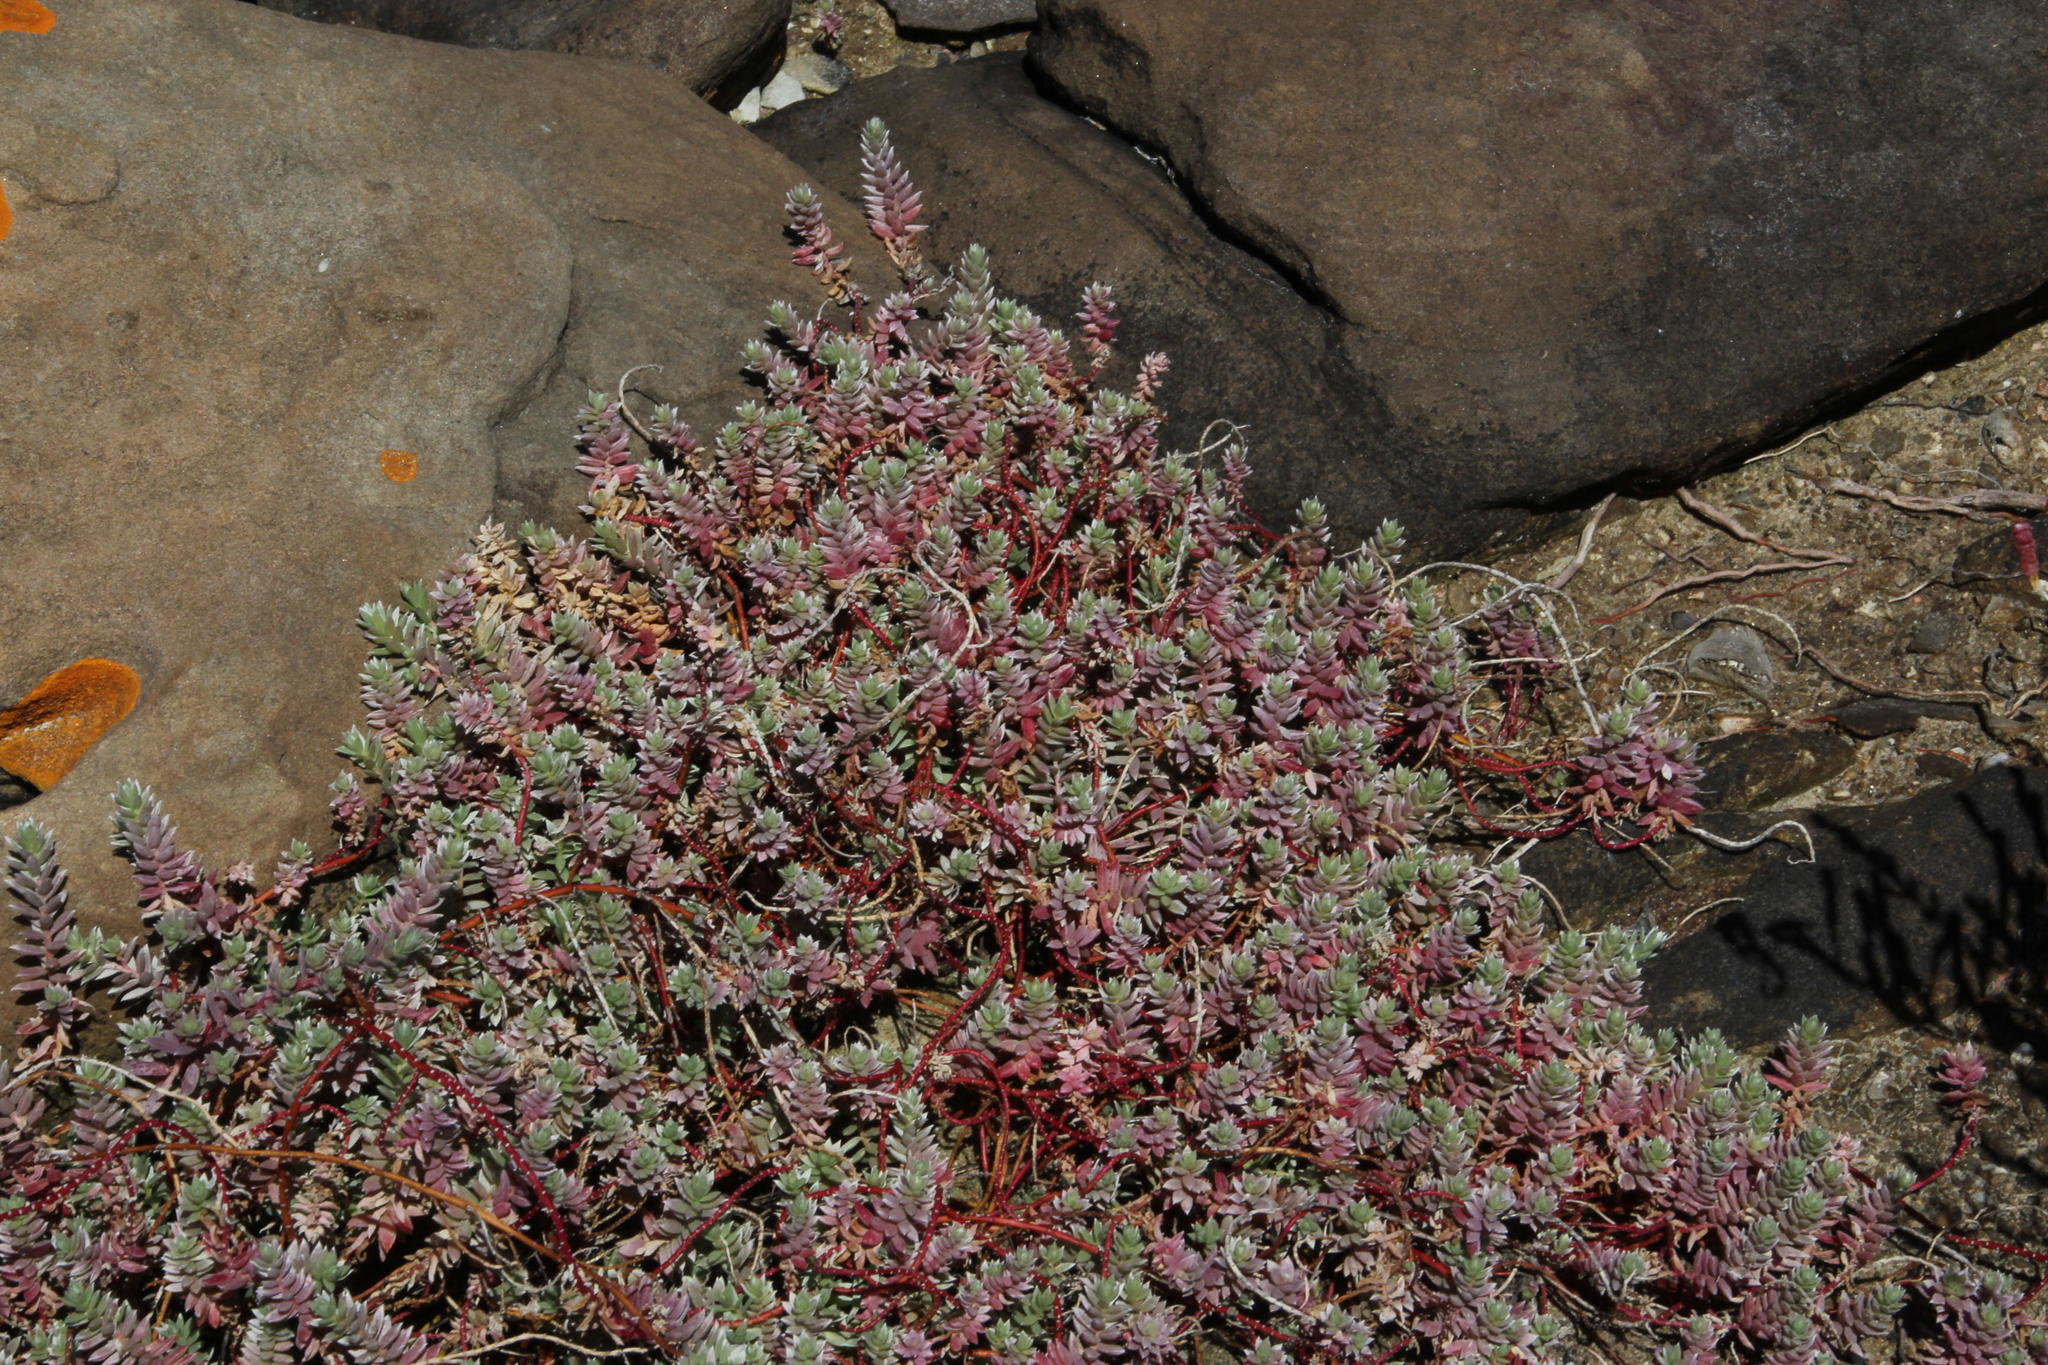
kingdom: Plantae
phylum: Tracheophyta
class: Magnoliopsida
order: Caryophyllales
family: Amaranthaceae
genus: Chenolea
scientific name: Chenolea diffusa
